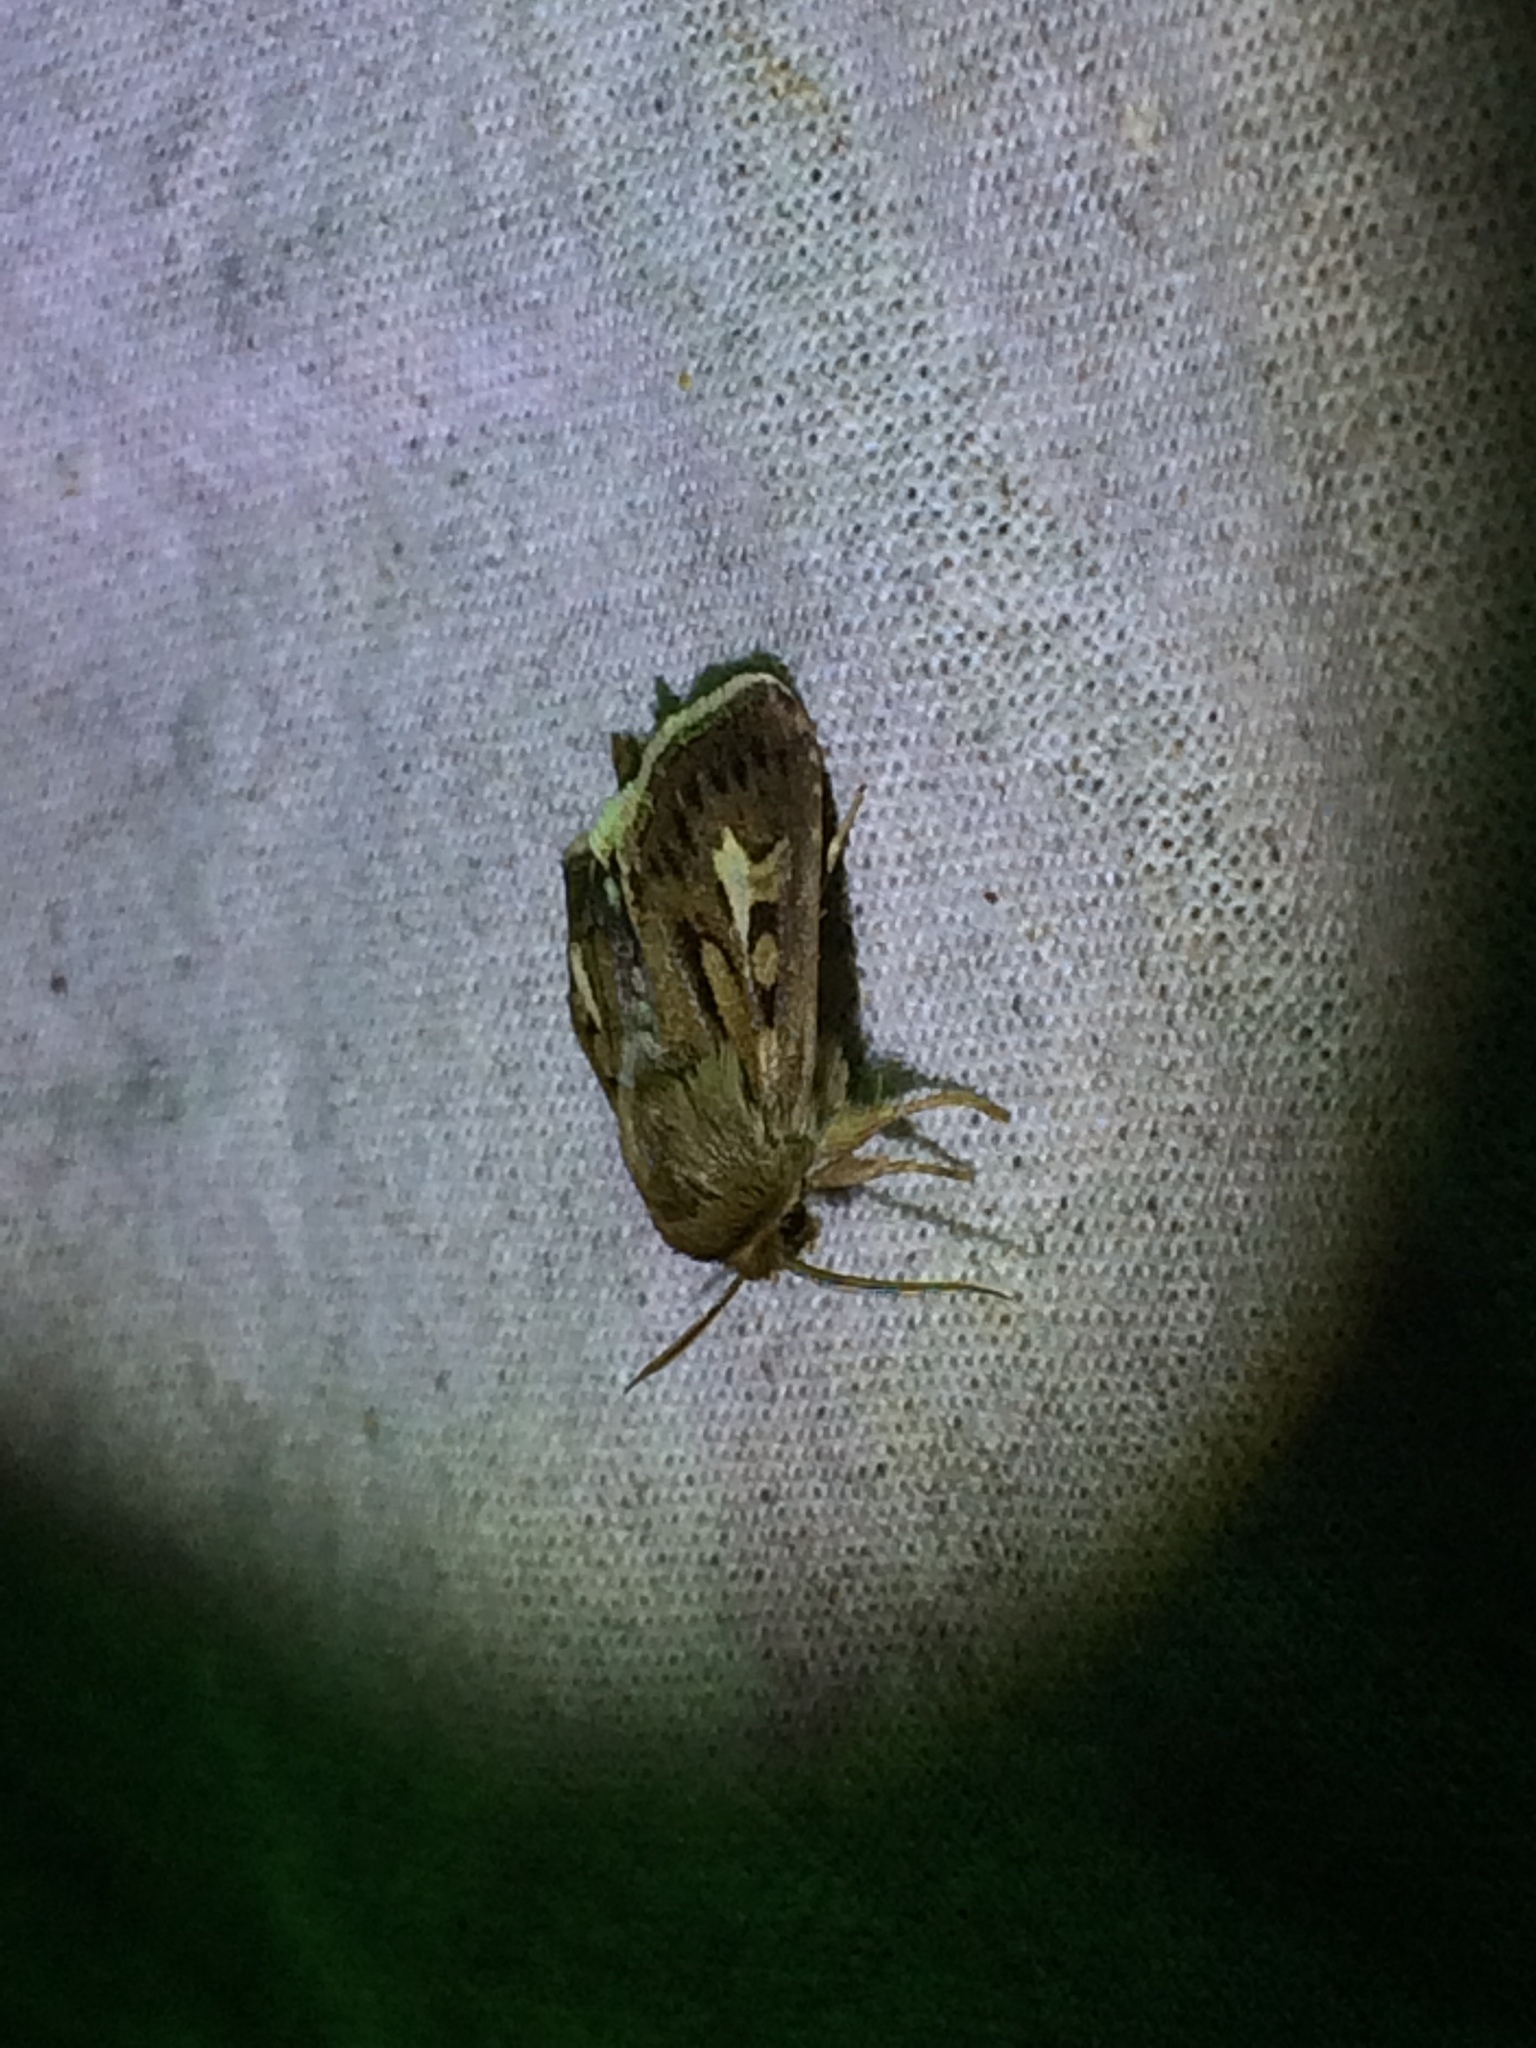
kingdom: Animalia
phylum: Arthropoda
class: Insecta
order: Lepidoptera
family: Noctuidae
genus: Cerapteryx
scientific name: Cerapteryx graminis
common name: Antler moth
